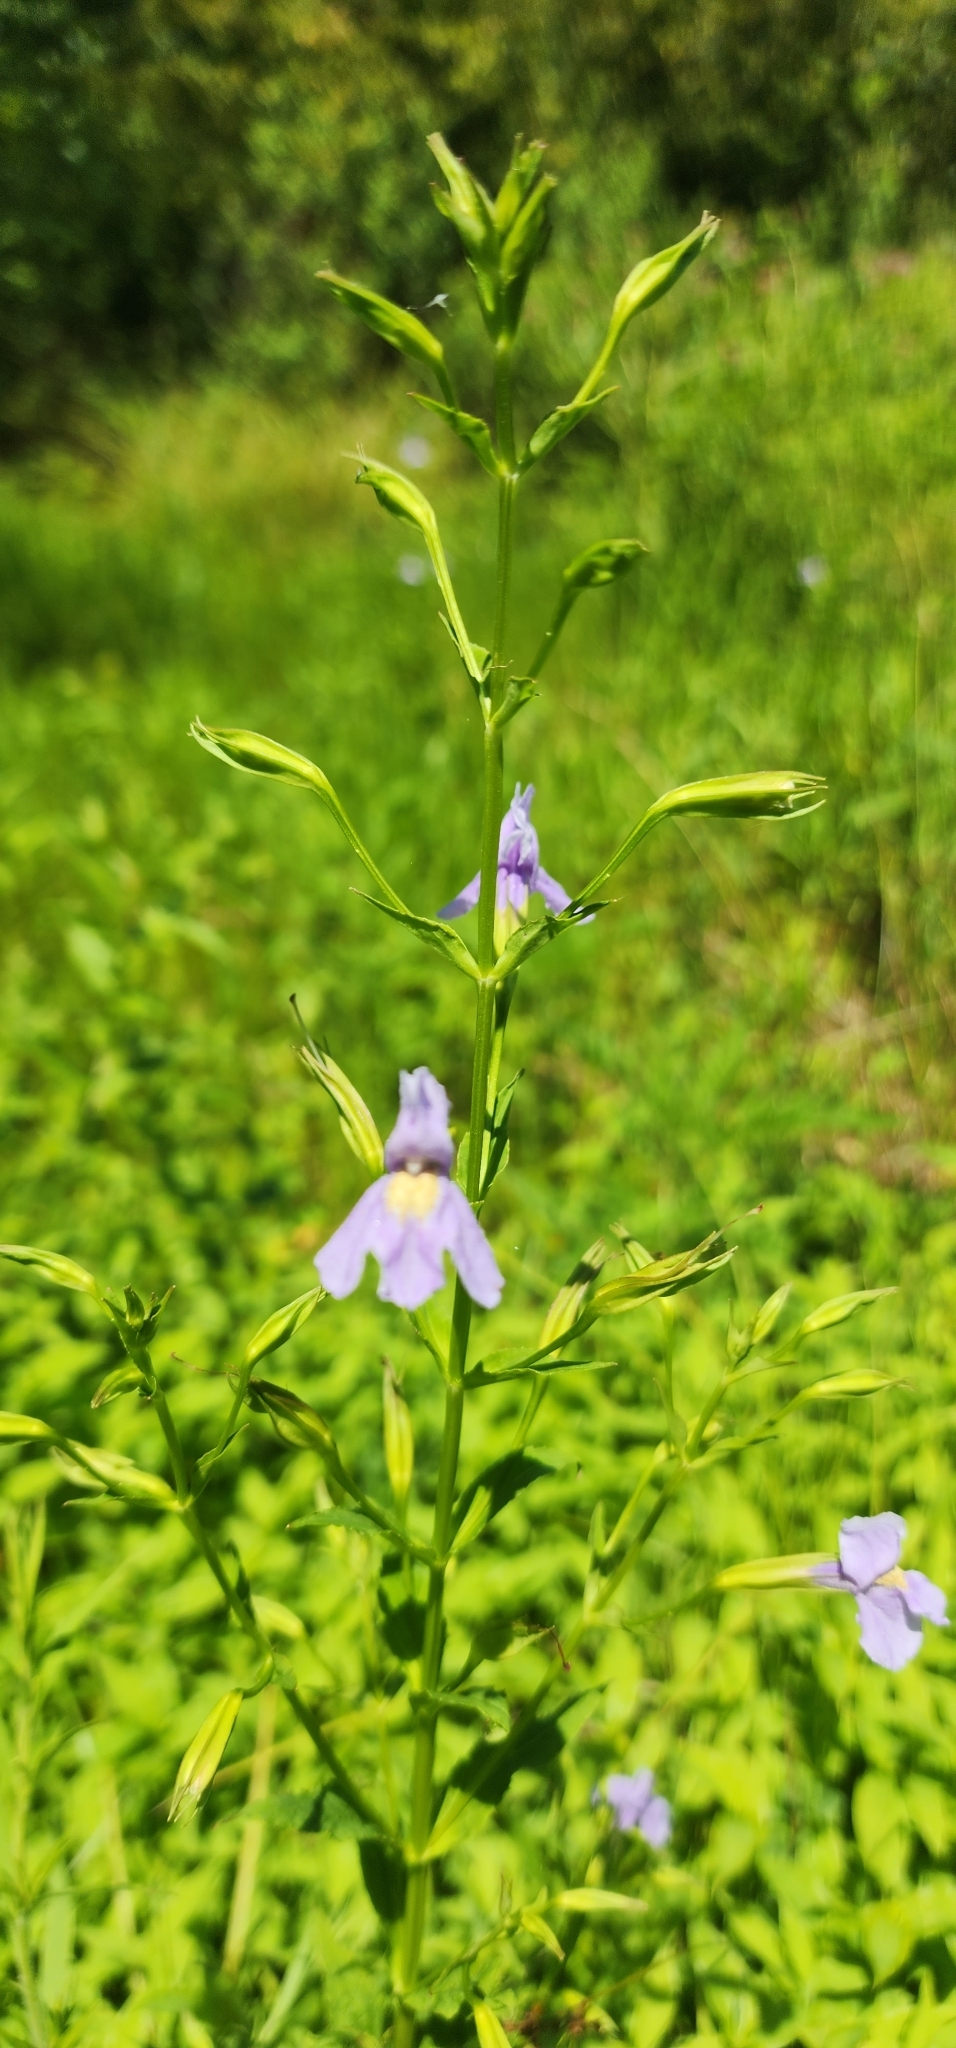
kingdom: Plantae
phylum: Tracheophyta
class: Magnoliopsida
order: Lamiales
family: Phrymaceae
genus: Mimulus
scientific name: Mimulus ringens
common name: Allegheny monkeyflower
